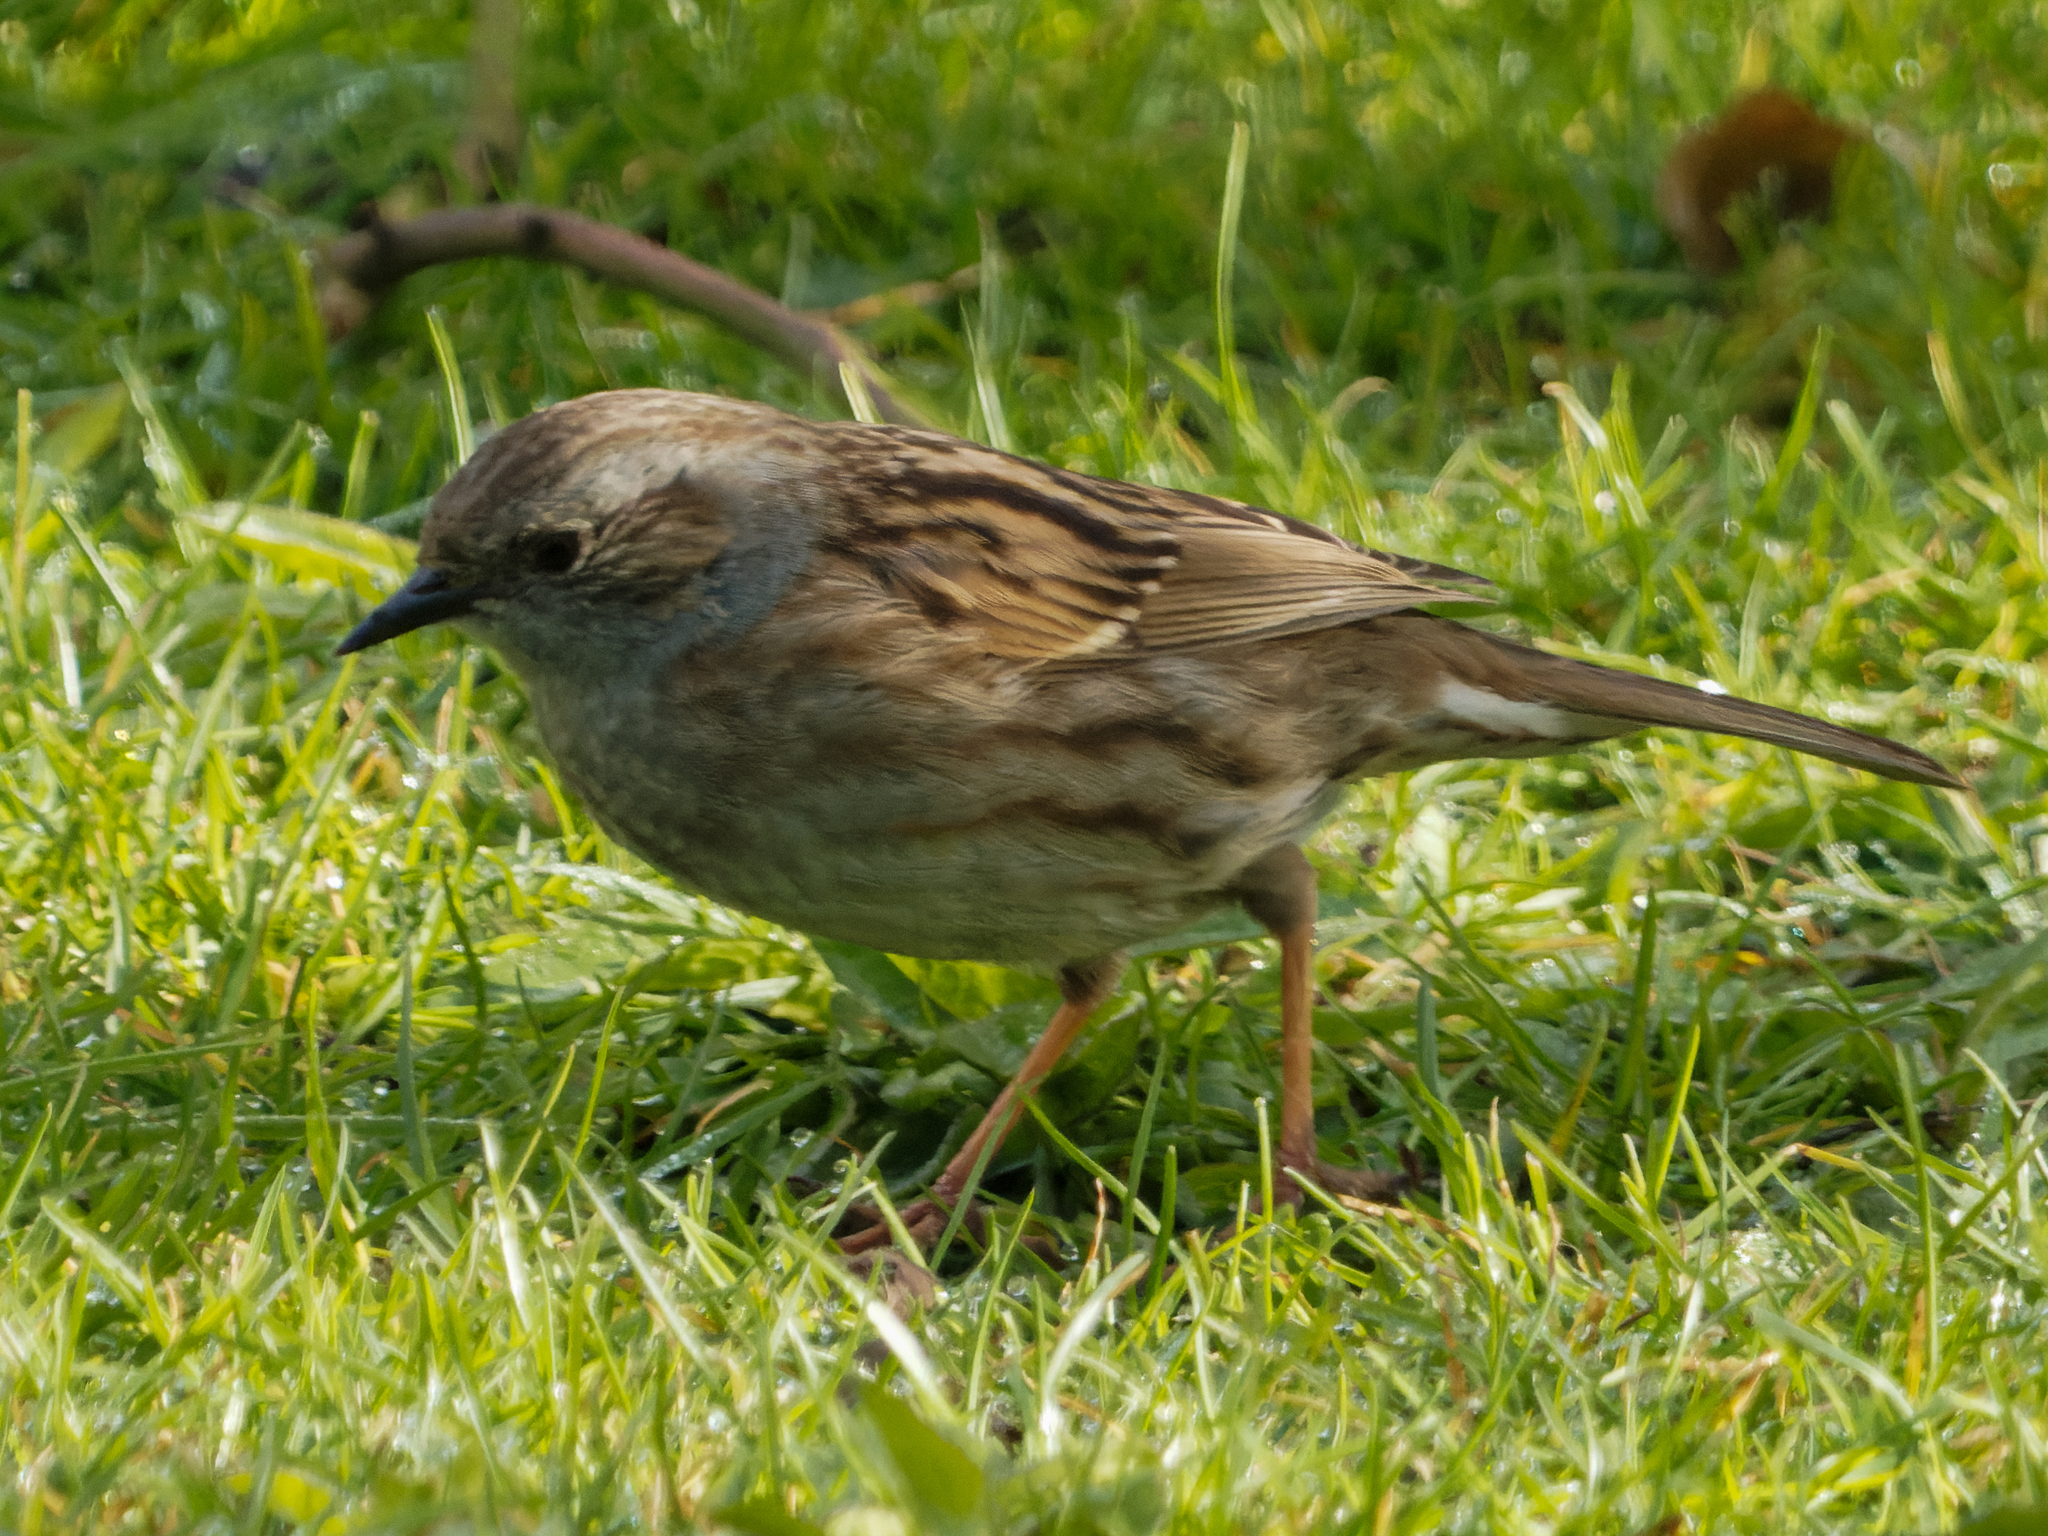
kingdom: Animalia
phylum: Chordata
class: Aves
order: Passeriformes
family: Prunellidae
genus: Prunella
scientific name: Prunella modularis
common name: Dunnock
